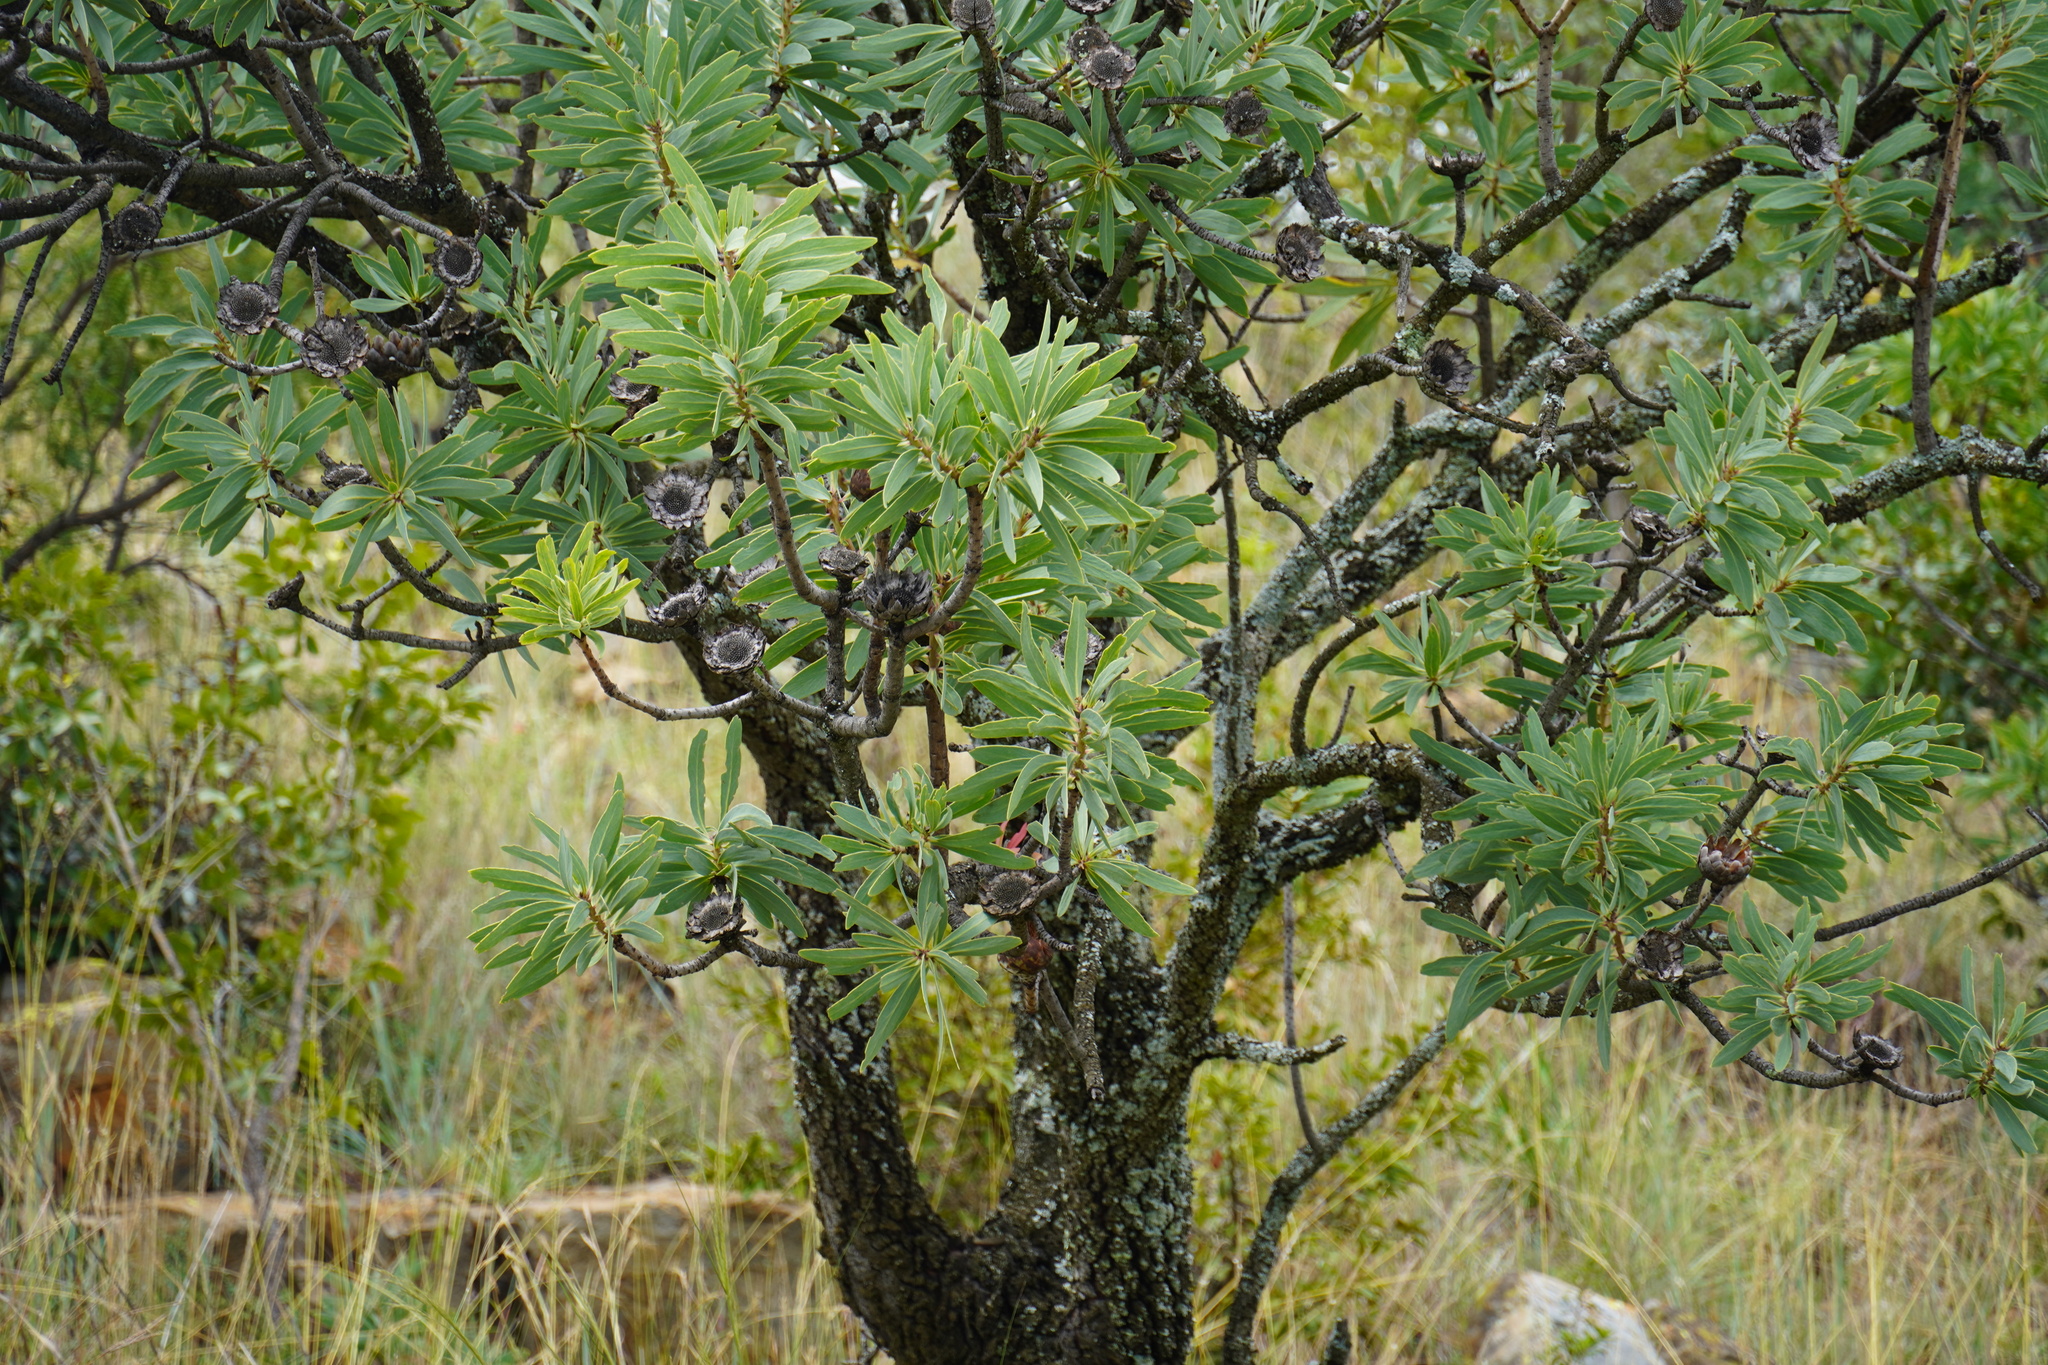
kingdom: Plantae
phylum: Tracheophyta
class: Magnoliopsida
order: Proteales
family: Proteaceae
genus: Protea
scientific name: Protea caffra
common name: Common sugarbush
